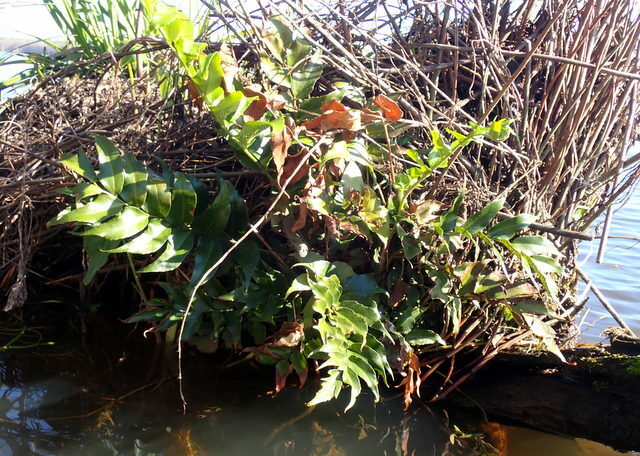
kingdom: Plantae
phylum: Tracheophyta
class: Polypodiopsida
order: Polypodiales
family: Dryopteridaceae
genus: Cyrtomium
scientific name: Cyrtomium falcatum
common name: House holly-fern
